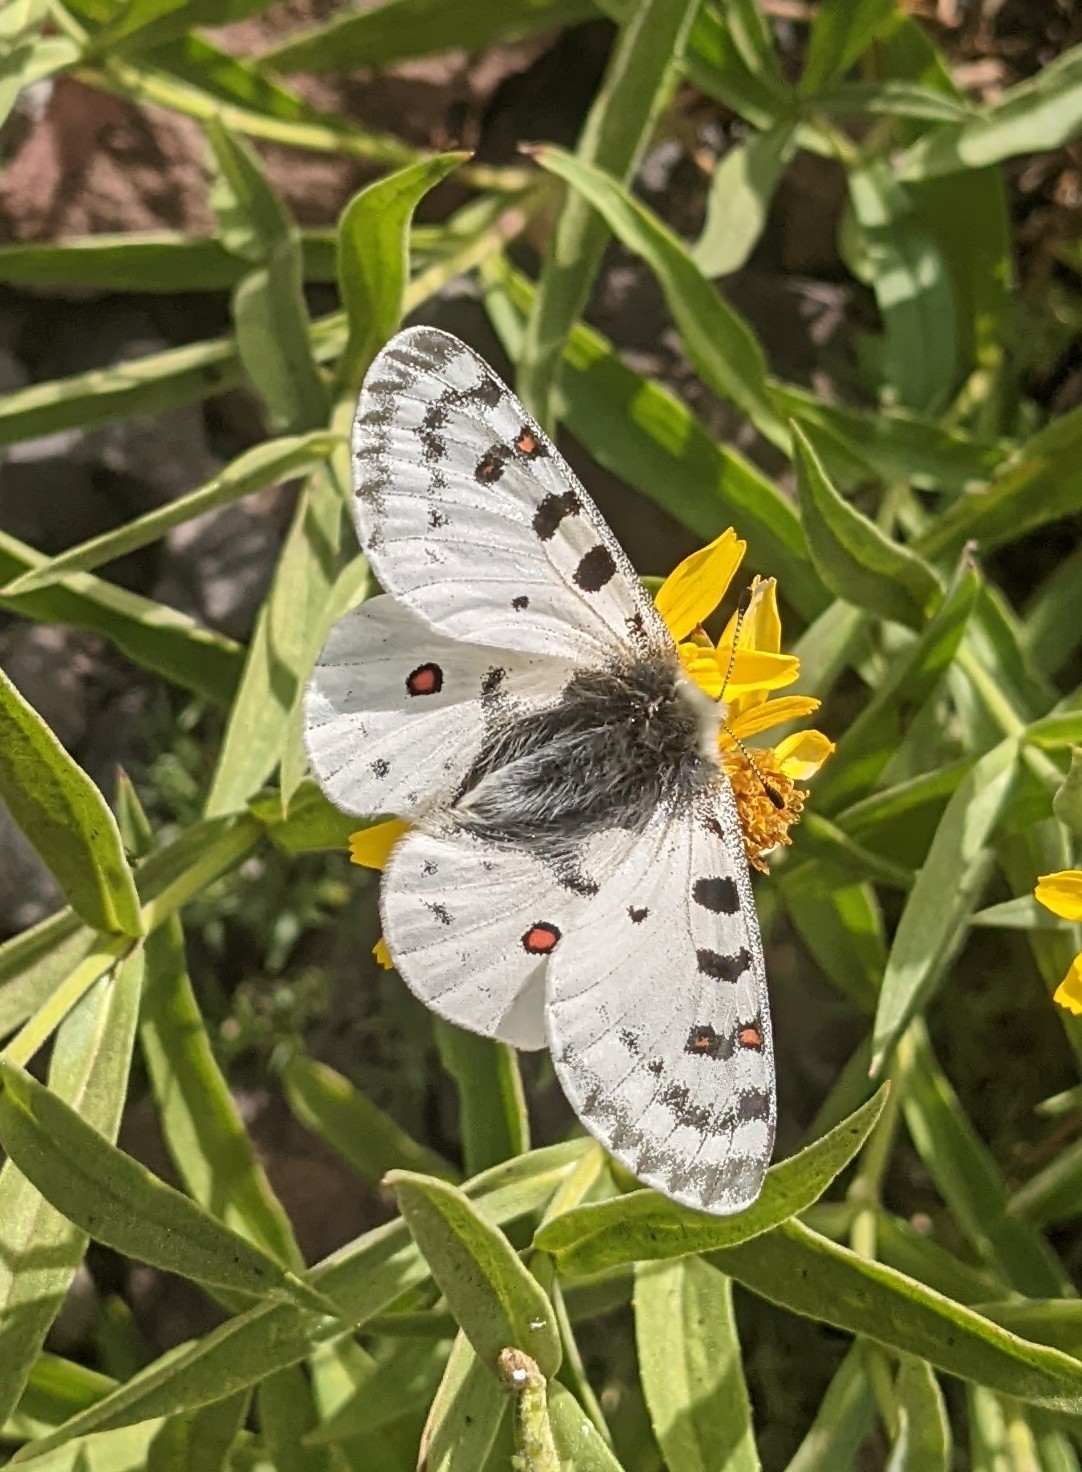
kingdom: Animalia
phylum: Arthropoda
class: Insecta
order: Lepidoptera
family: Papilionidae
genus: Parnassius
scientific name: Parnassius smintheus
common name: Mountain parnassian
